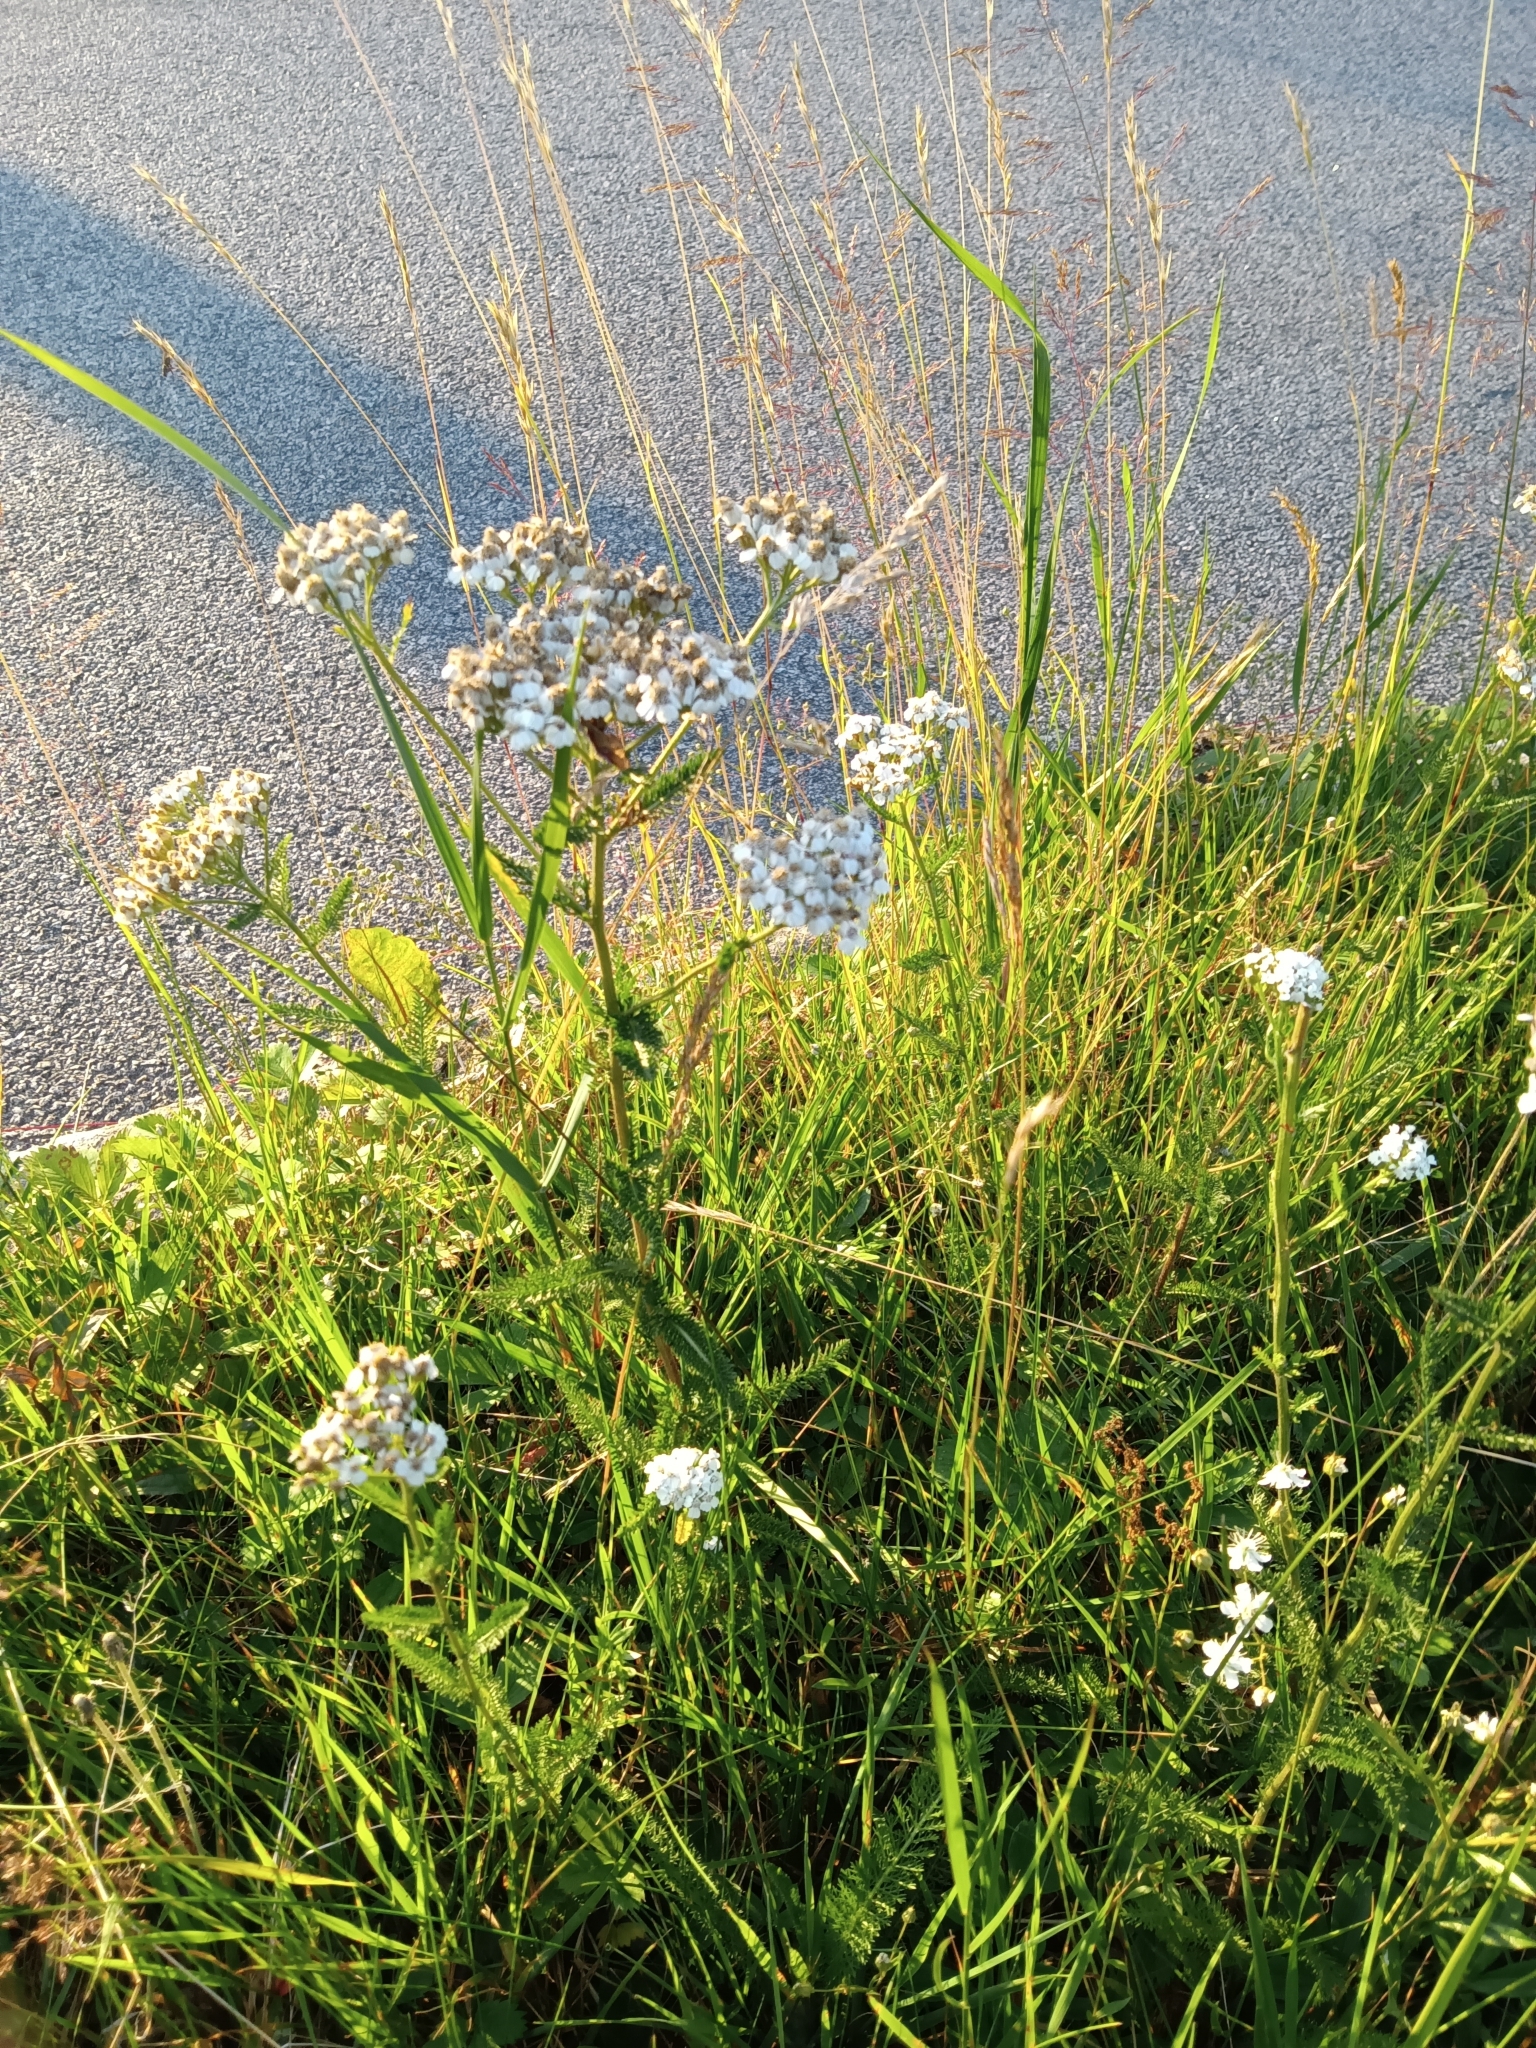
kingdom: Plantae
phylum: Tracheophyta
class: Magnoliopsida
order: Asterales
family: Asteraceae
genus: Achillea
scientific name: Achillea millefolium
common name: Yarrow
